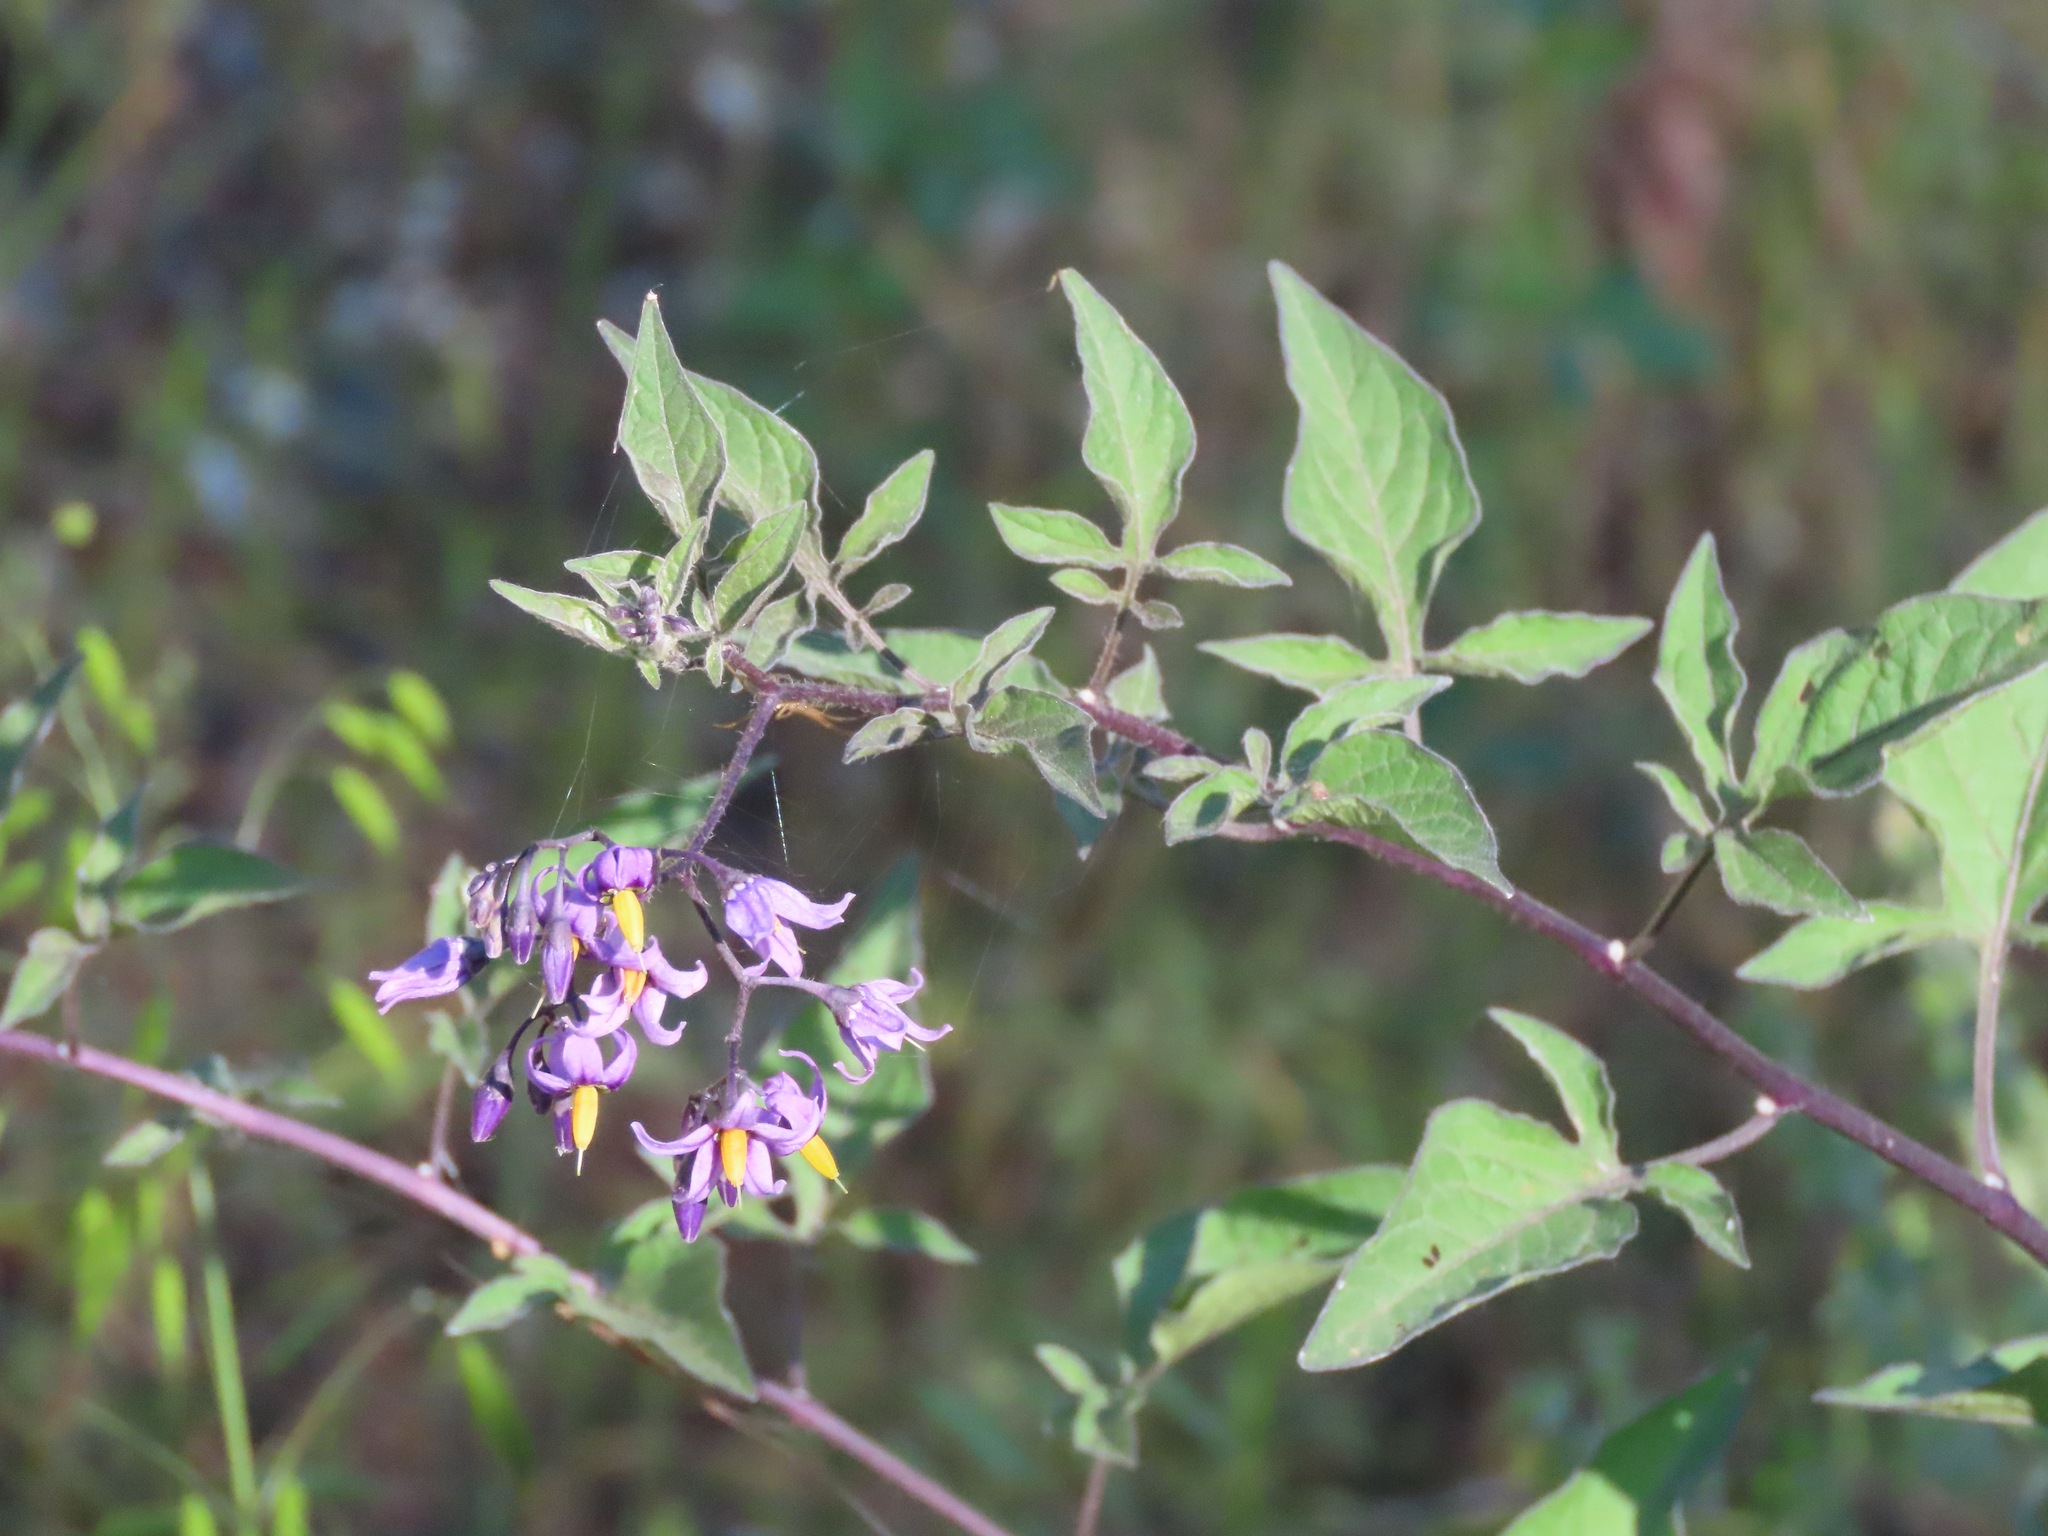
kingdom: Plantae
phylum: Tracheophyta
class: Magnoliopsida
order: Solanales
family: Solanaceae
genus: Solanum
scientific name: Solanum dulcamara
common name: Climbing nightshade
